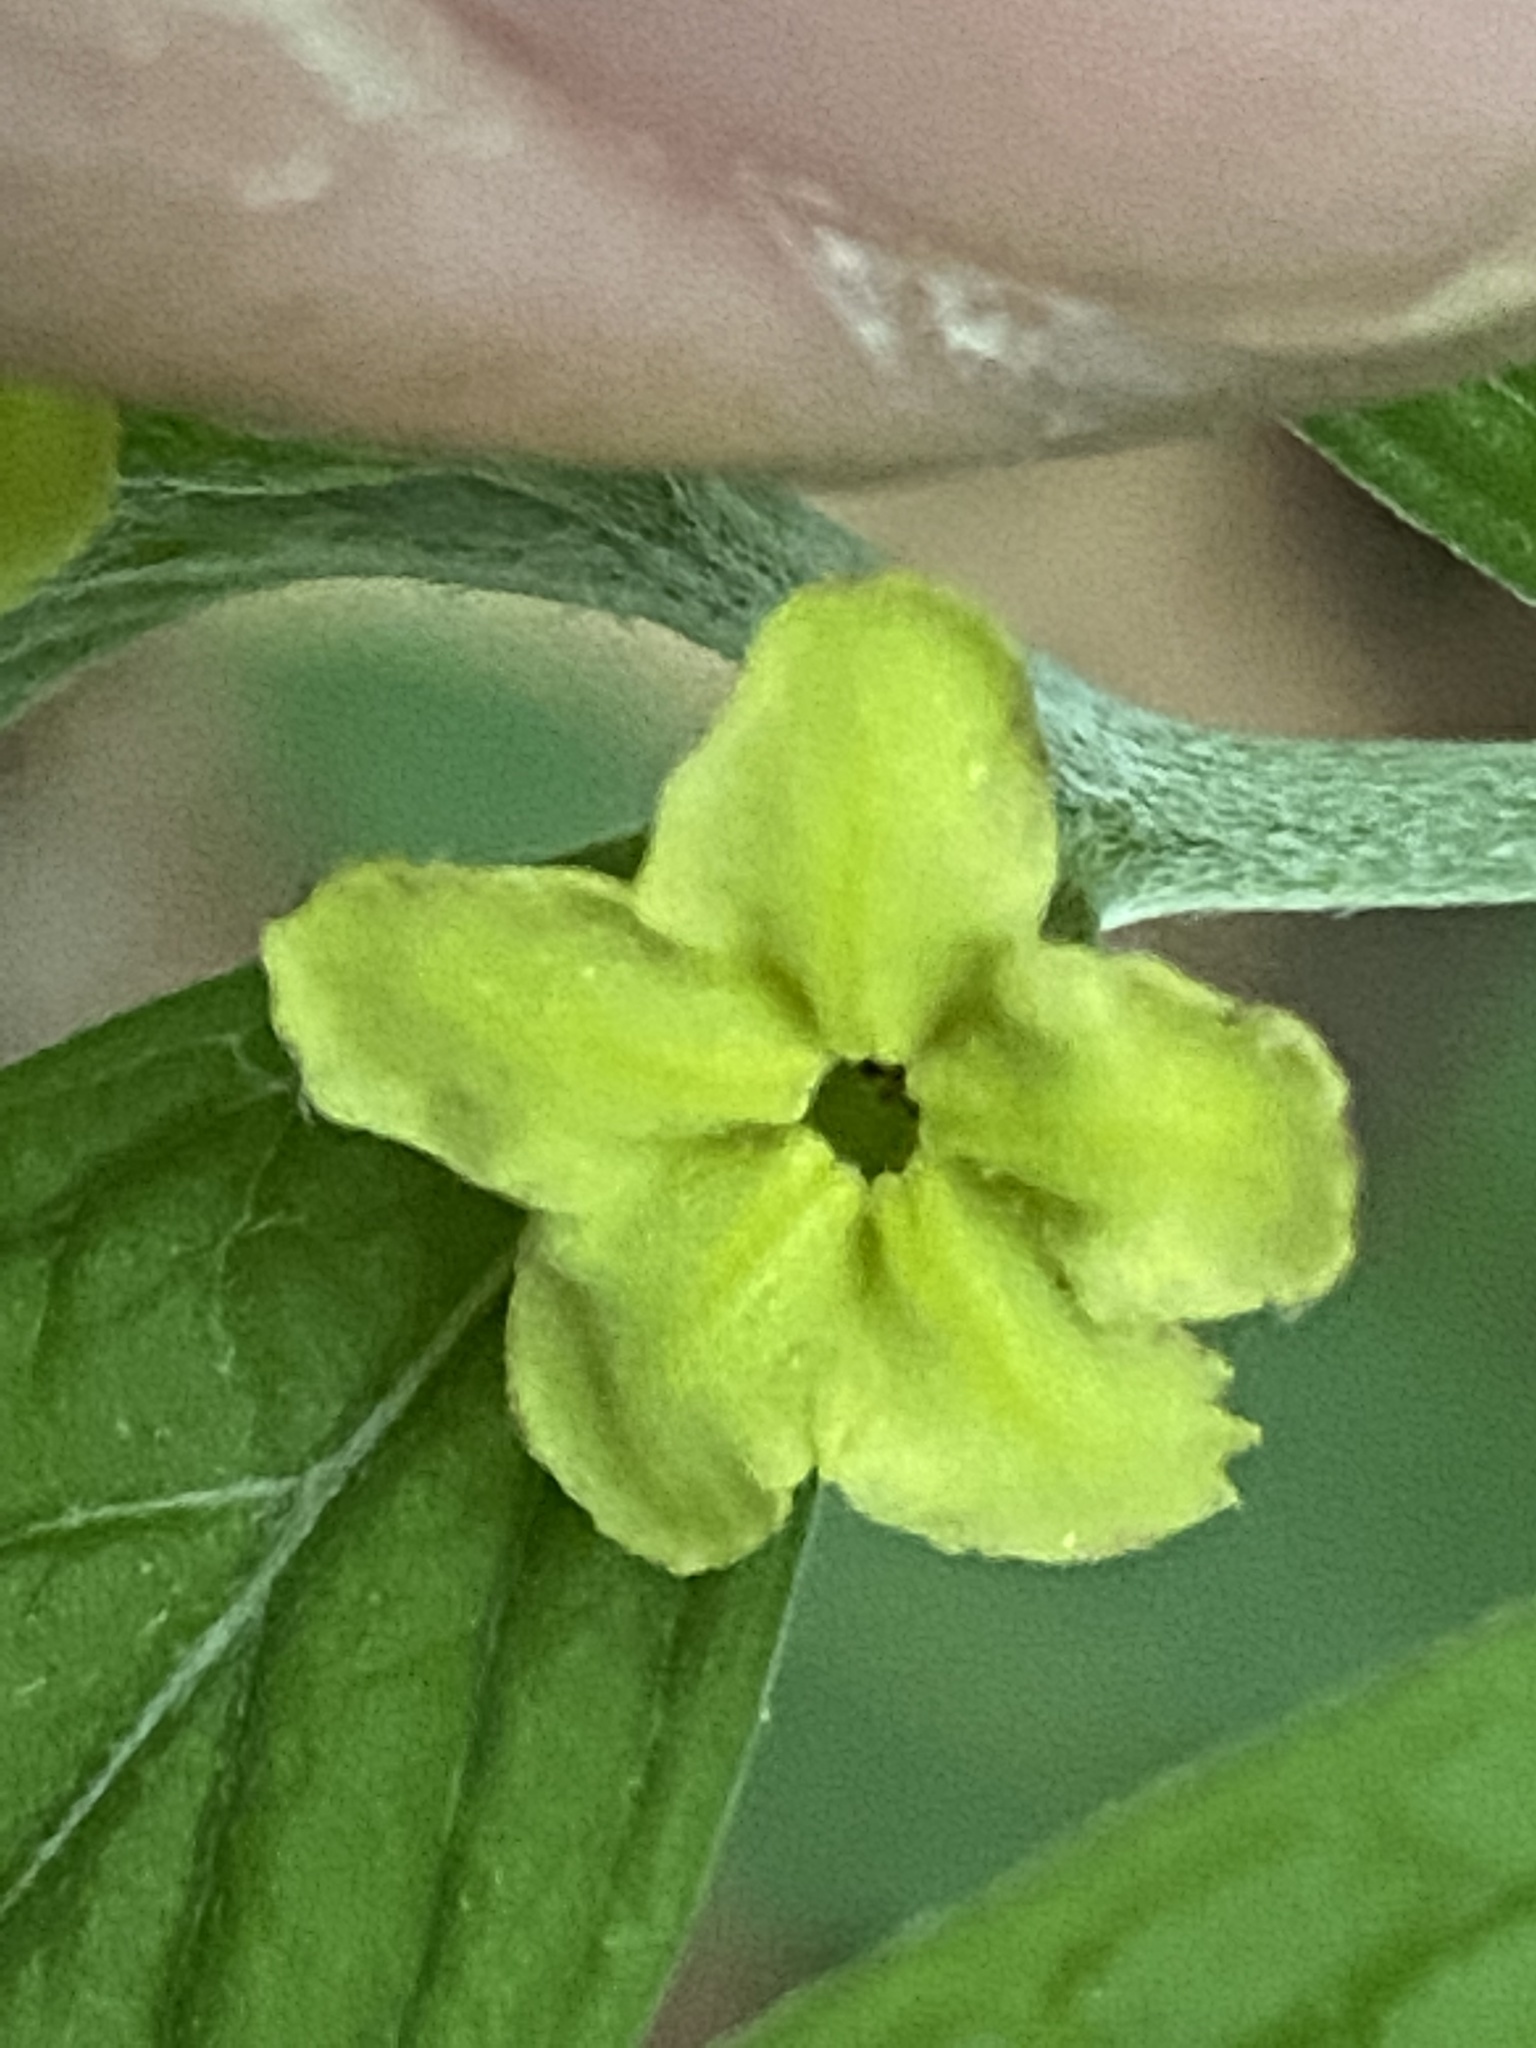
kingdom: Plantae
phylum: Tracheophyta
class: Magnoliopsida
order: Boraginales
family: Boraginaceae
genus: Lithospermum
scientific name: Lithospermum latifolium
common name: American gromwell
